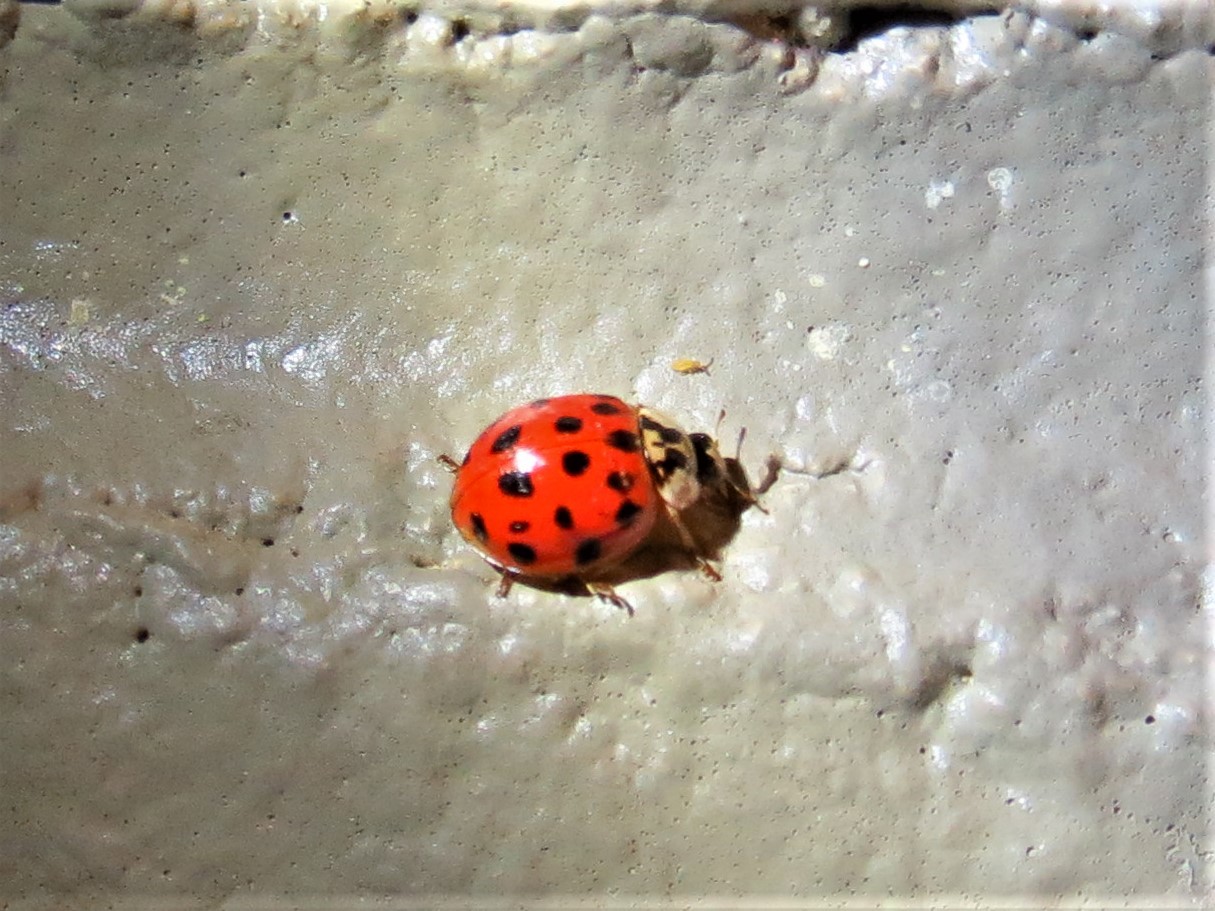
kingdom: Animalia
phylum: Arthropoda
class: Insecta
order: Coleoptera
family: Coccinellidae
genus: Harmonia
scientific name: Harmonia axyridis
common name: Harlequin ladybird
